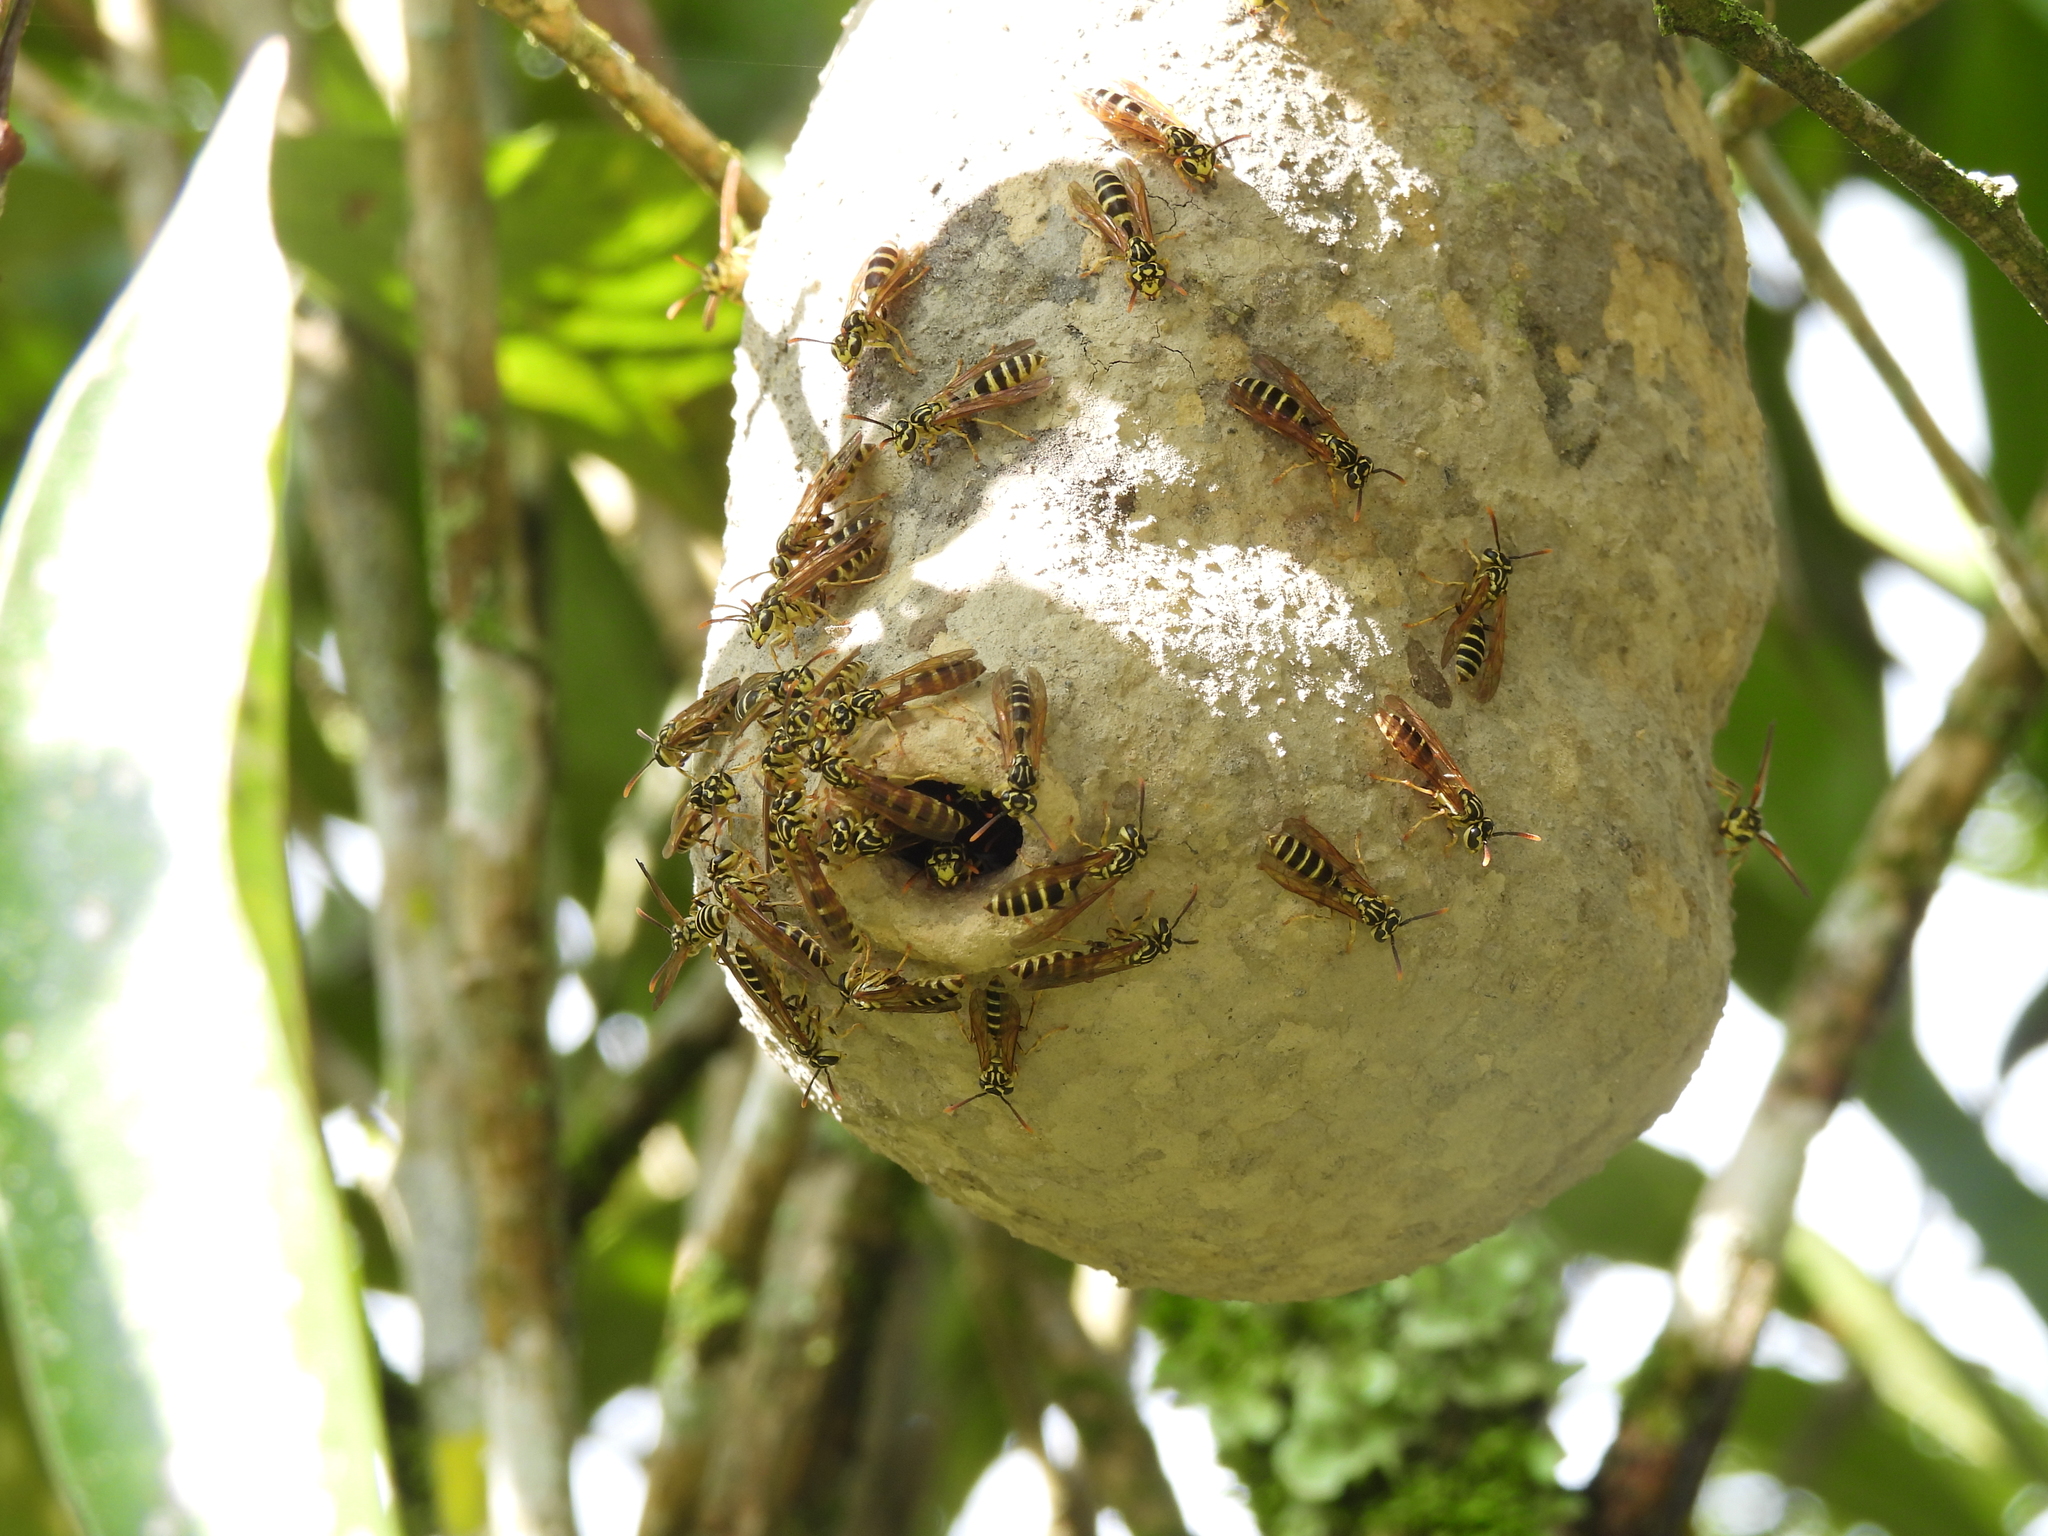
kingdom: Animalia
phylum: Arthropoda
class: Insecta
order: Hymenoptera
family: Eumenidae
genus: Polybia
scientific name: Polybia emaciata
